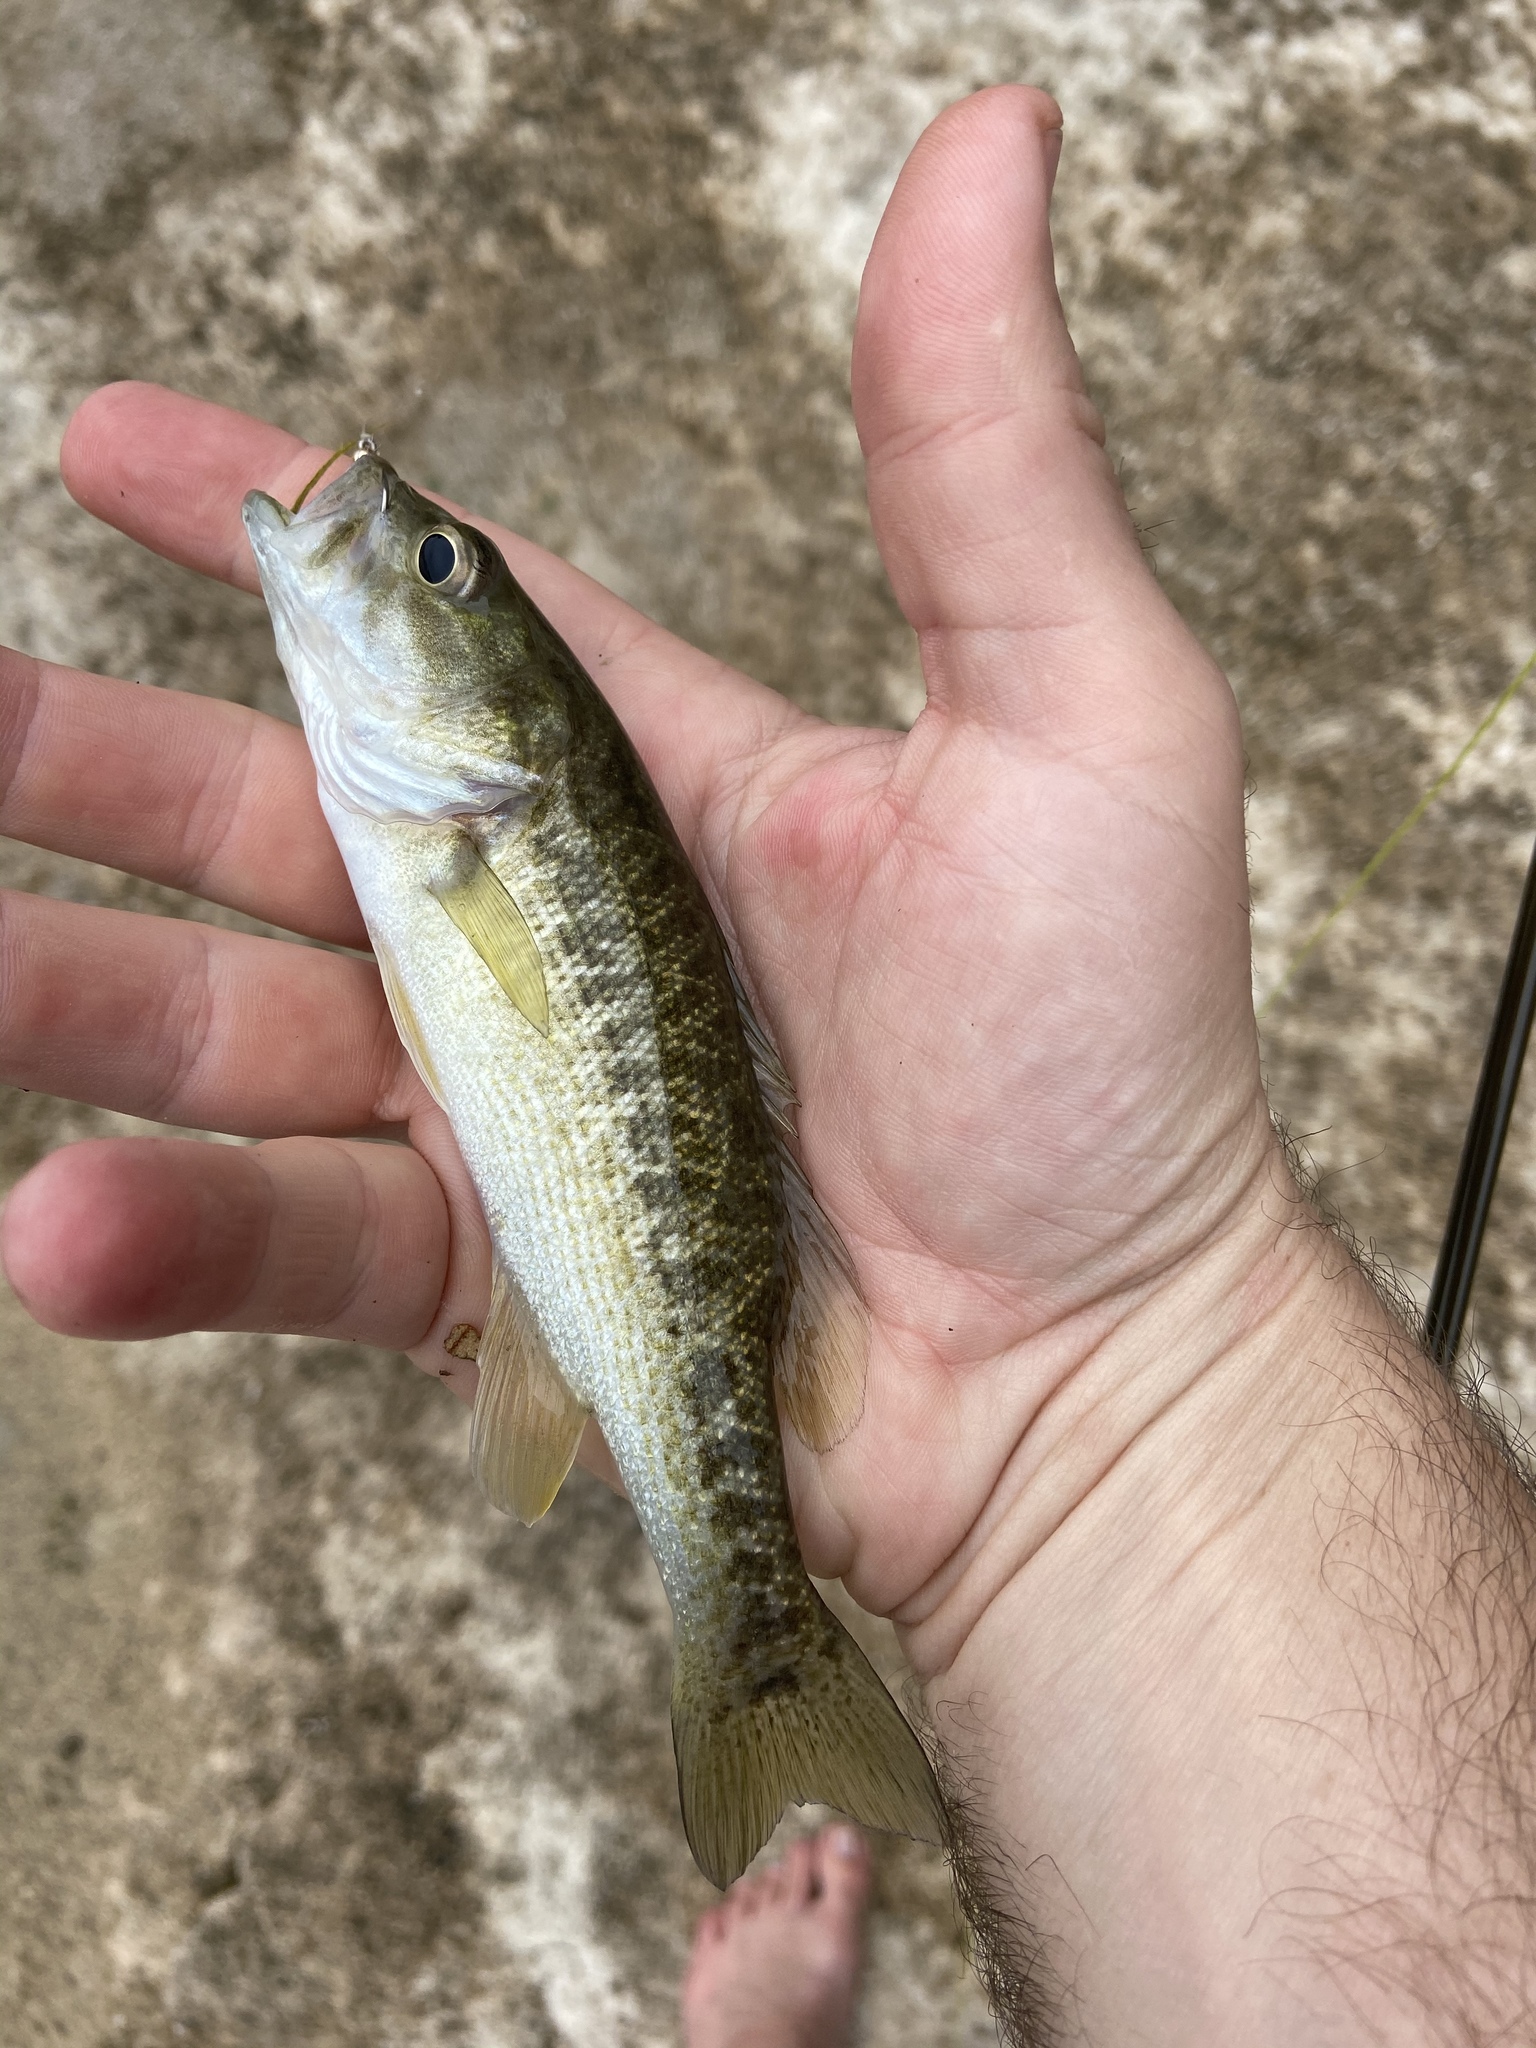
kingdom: Animalia
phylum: Chordata
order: Perciformes
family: Centrarchidae
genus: Micropterus
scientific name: Micropterus treculii
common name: Guadalupe bass
